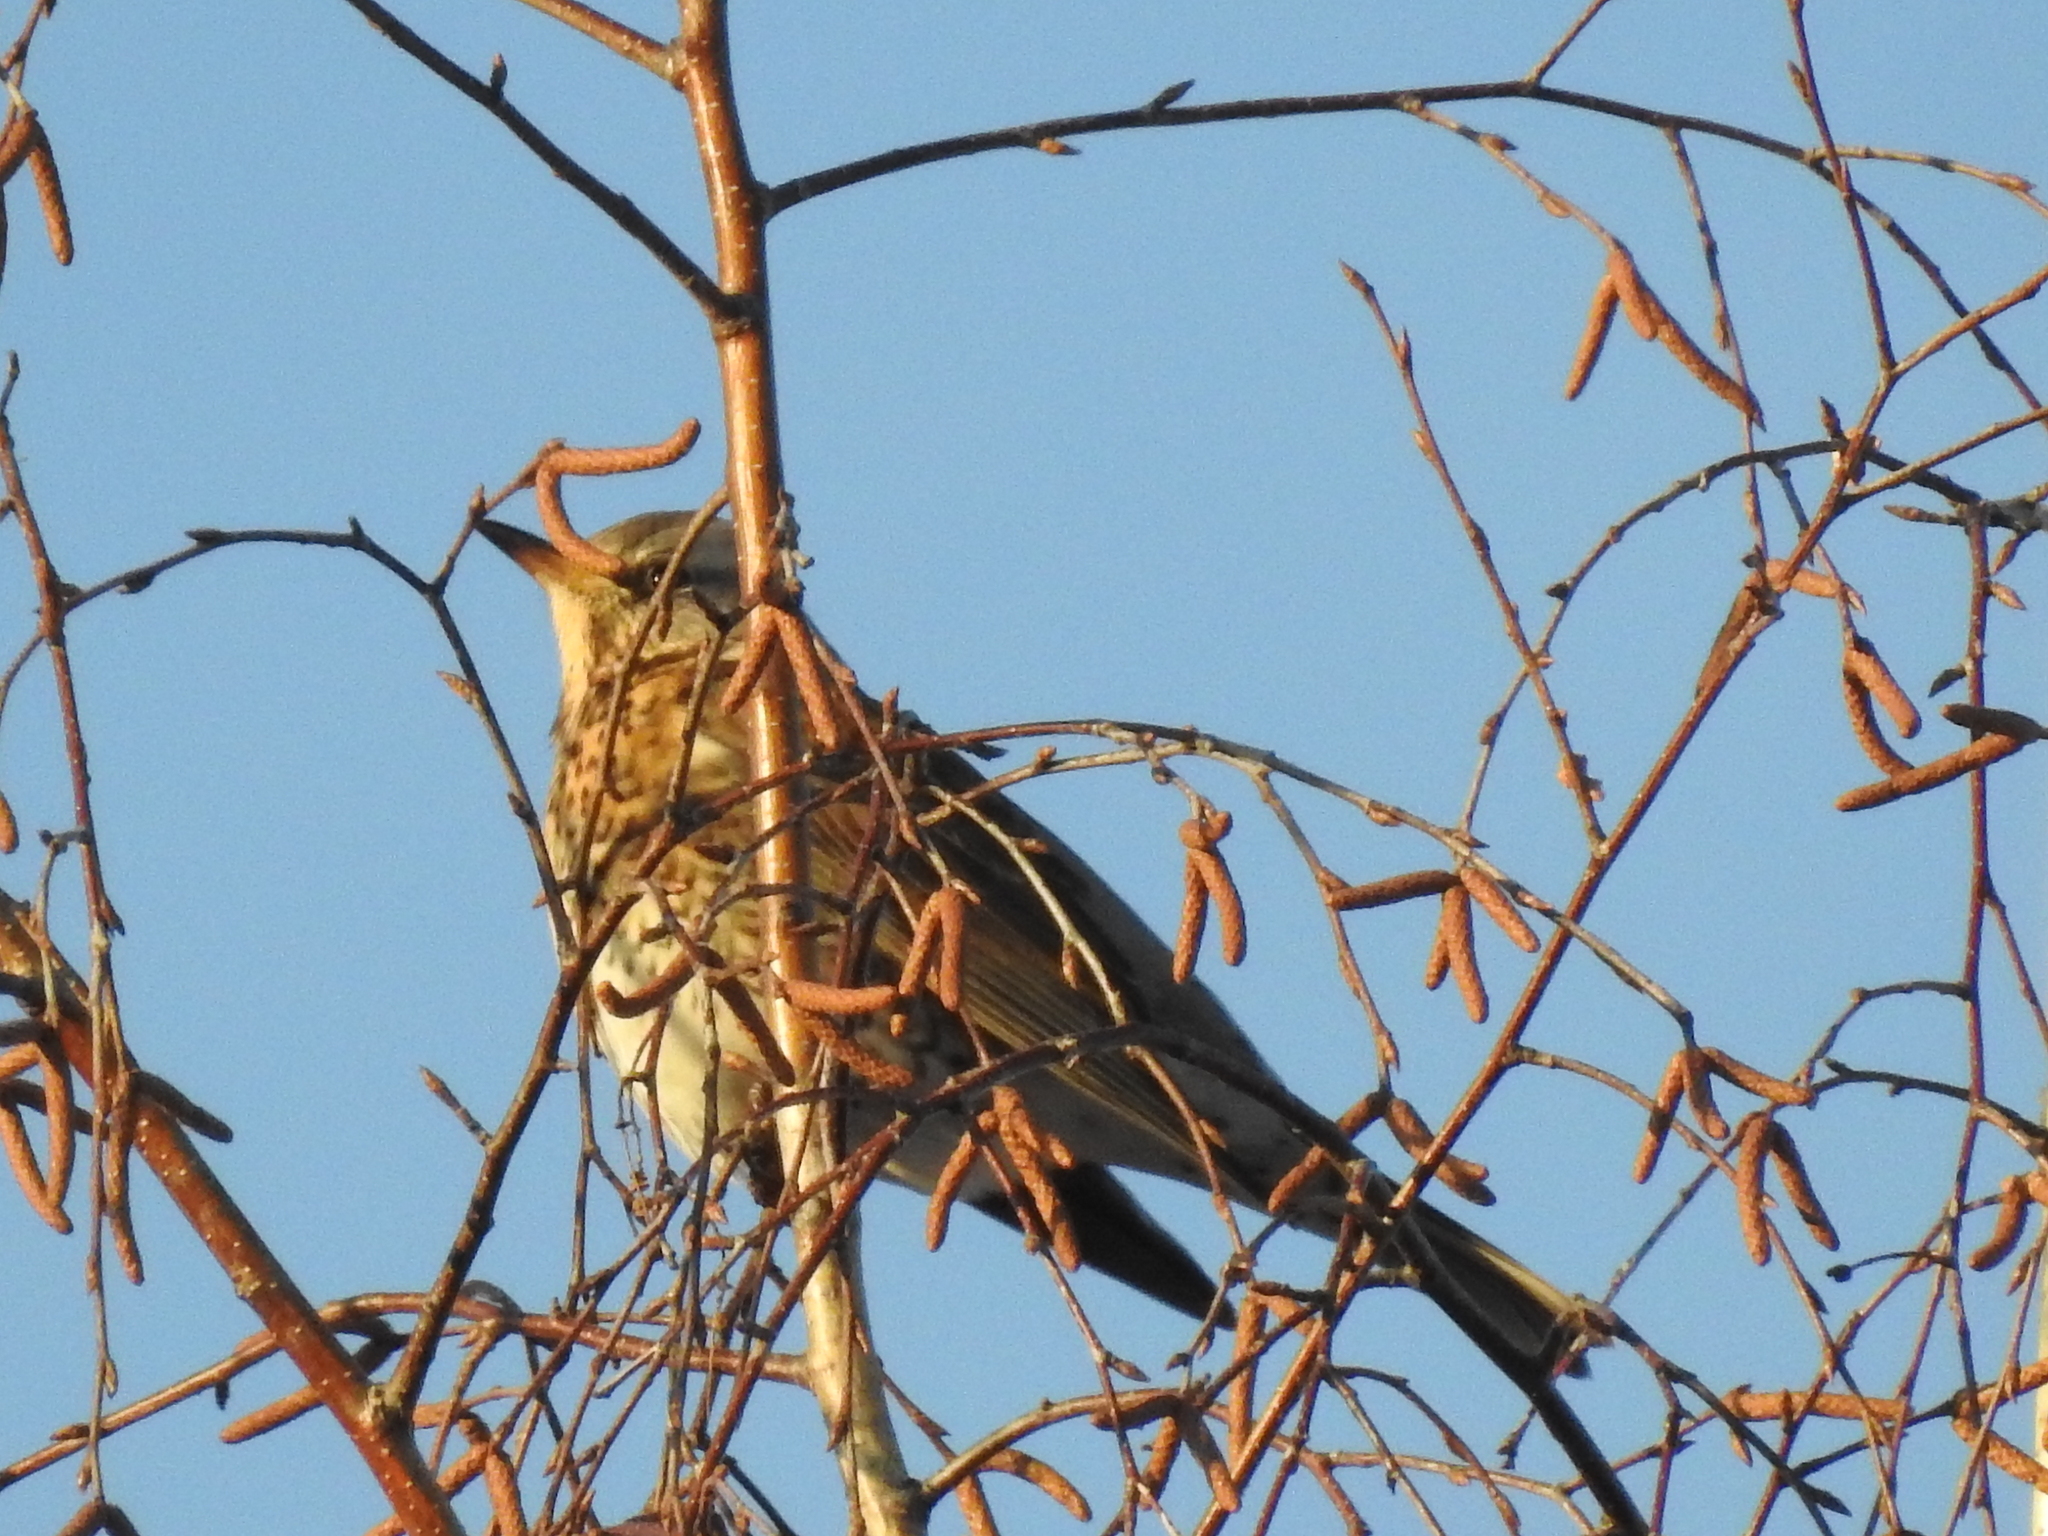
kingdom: Animalia
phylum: Chordata
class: Aves
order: Passeriformes
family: Turdidae
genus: Turdus
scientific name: Turdus pilaris
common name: Fieldfare
